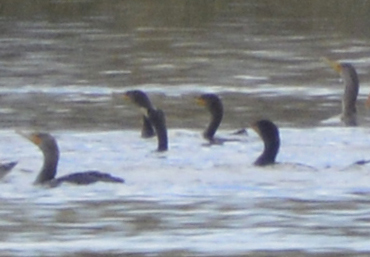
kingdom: Animalia
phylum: Chordata
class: Aves
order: Suliformes
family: Phalacrocoracidae
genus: Phalacrocorax
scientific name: Phalacrocorax auritus
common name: Double-crested cormorant
